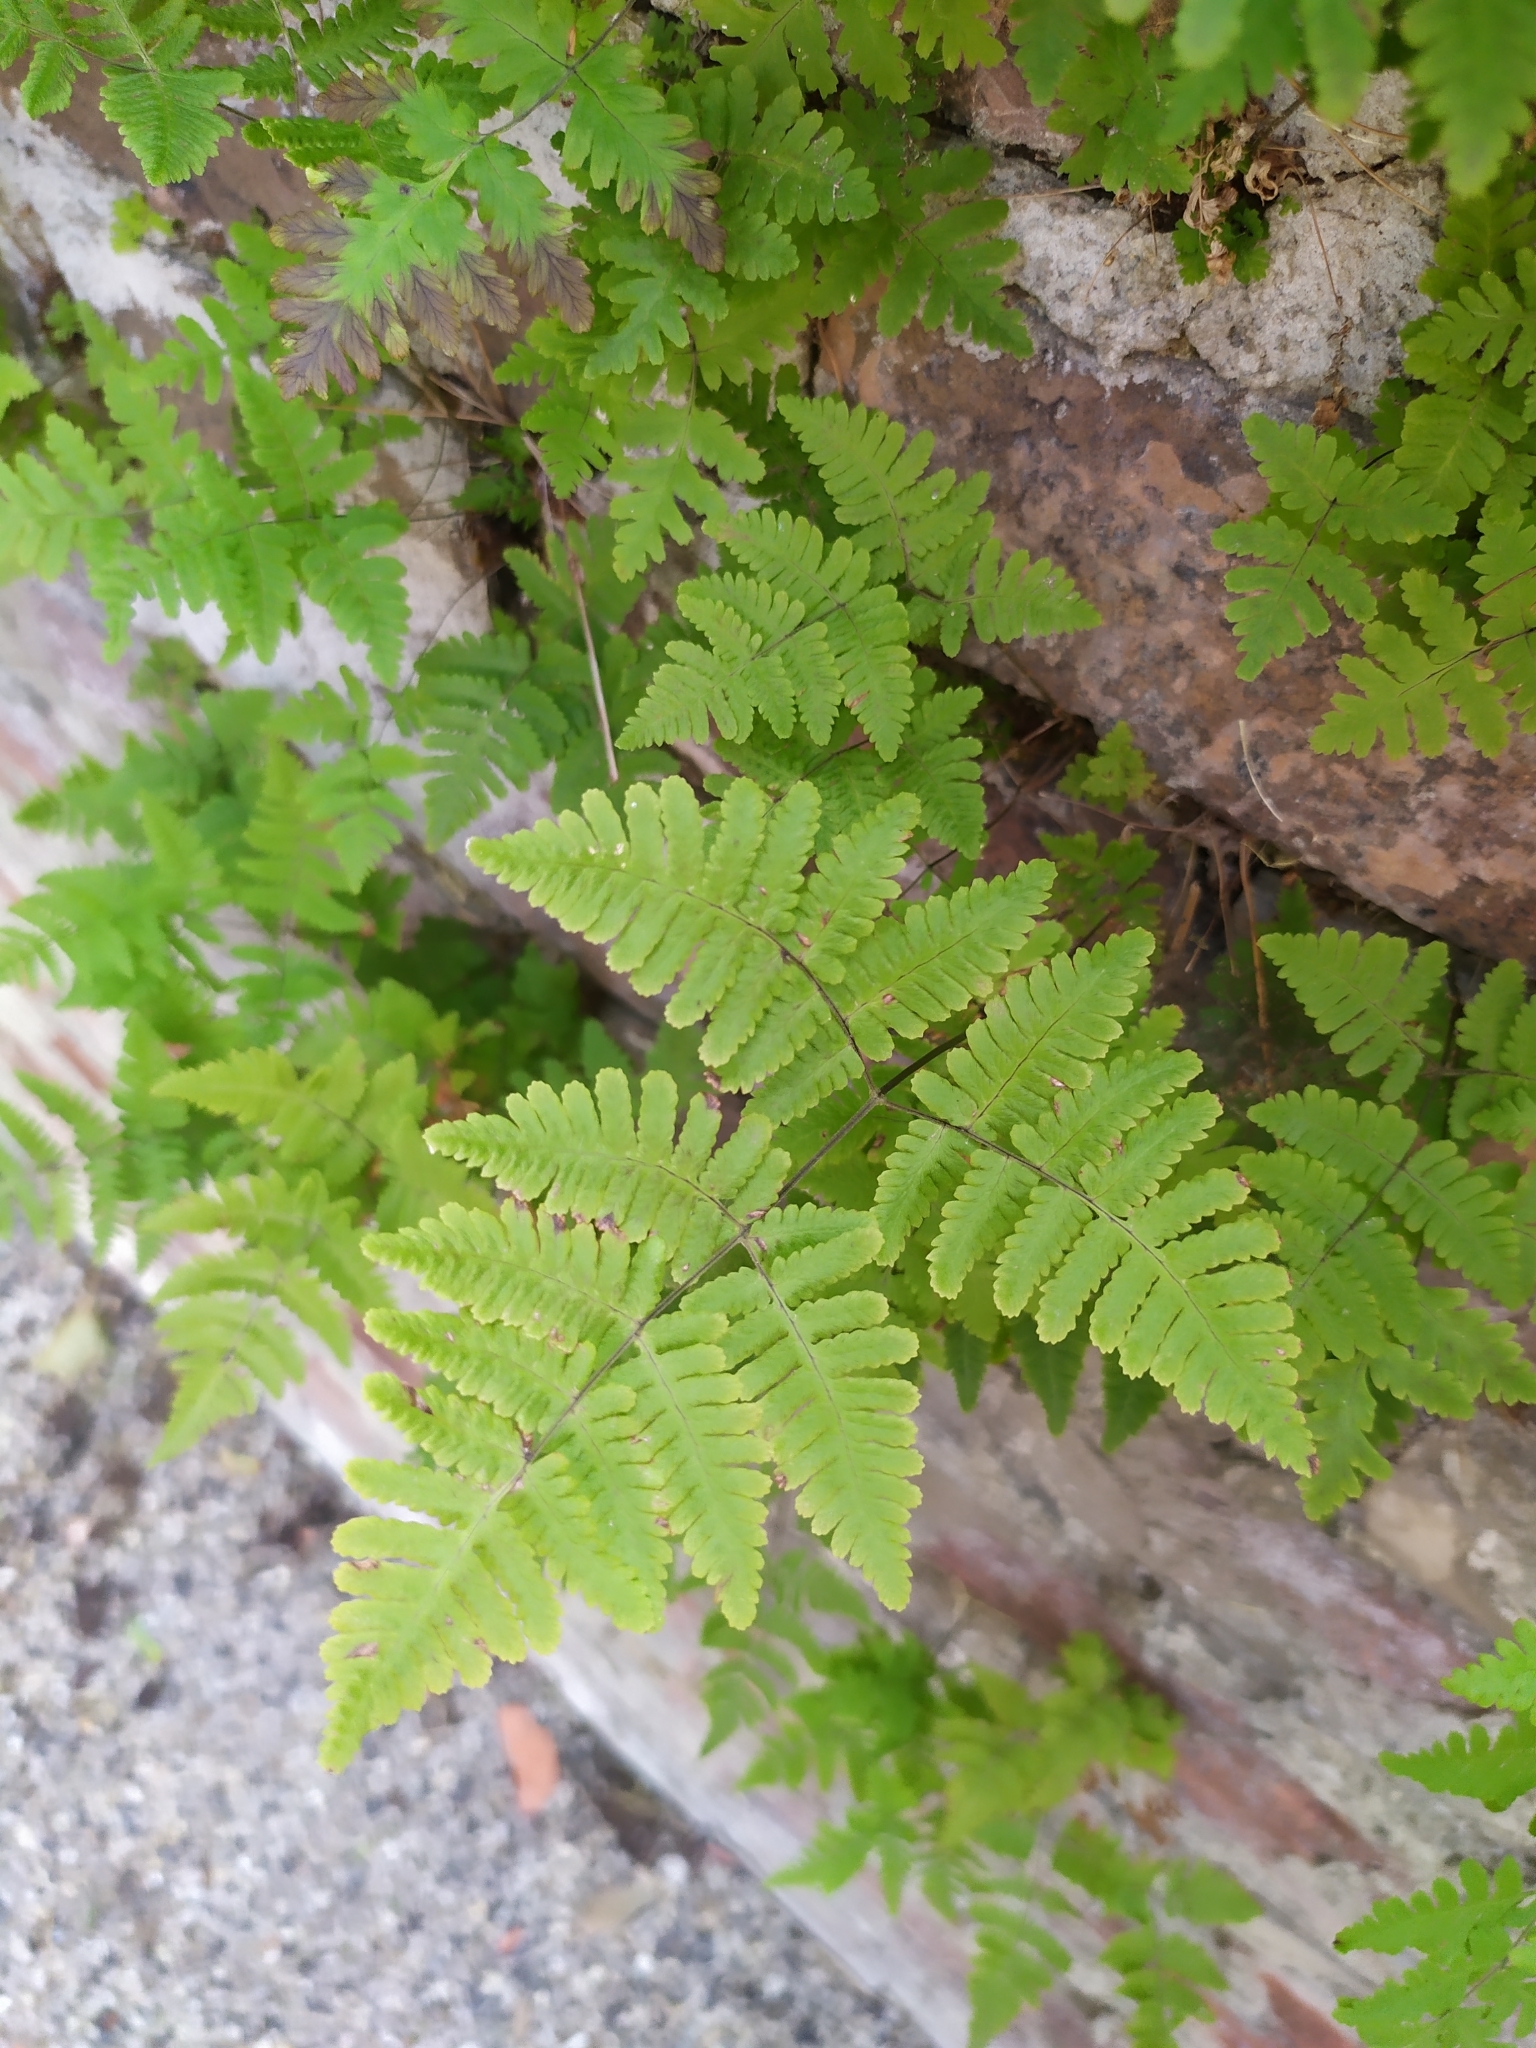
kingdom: Plantae
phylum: Tracheophyta
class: Polypodiopsida
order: Polypodiales
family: Cystopteridaceae
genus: Gymnocarpium
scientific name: Gymnocarpium robertianum
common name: Limestone fern
